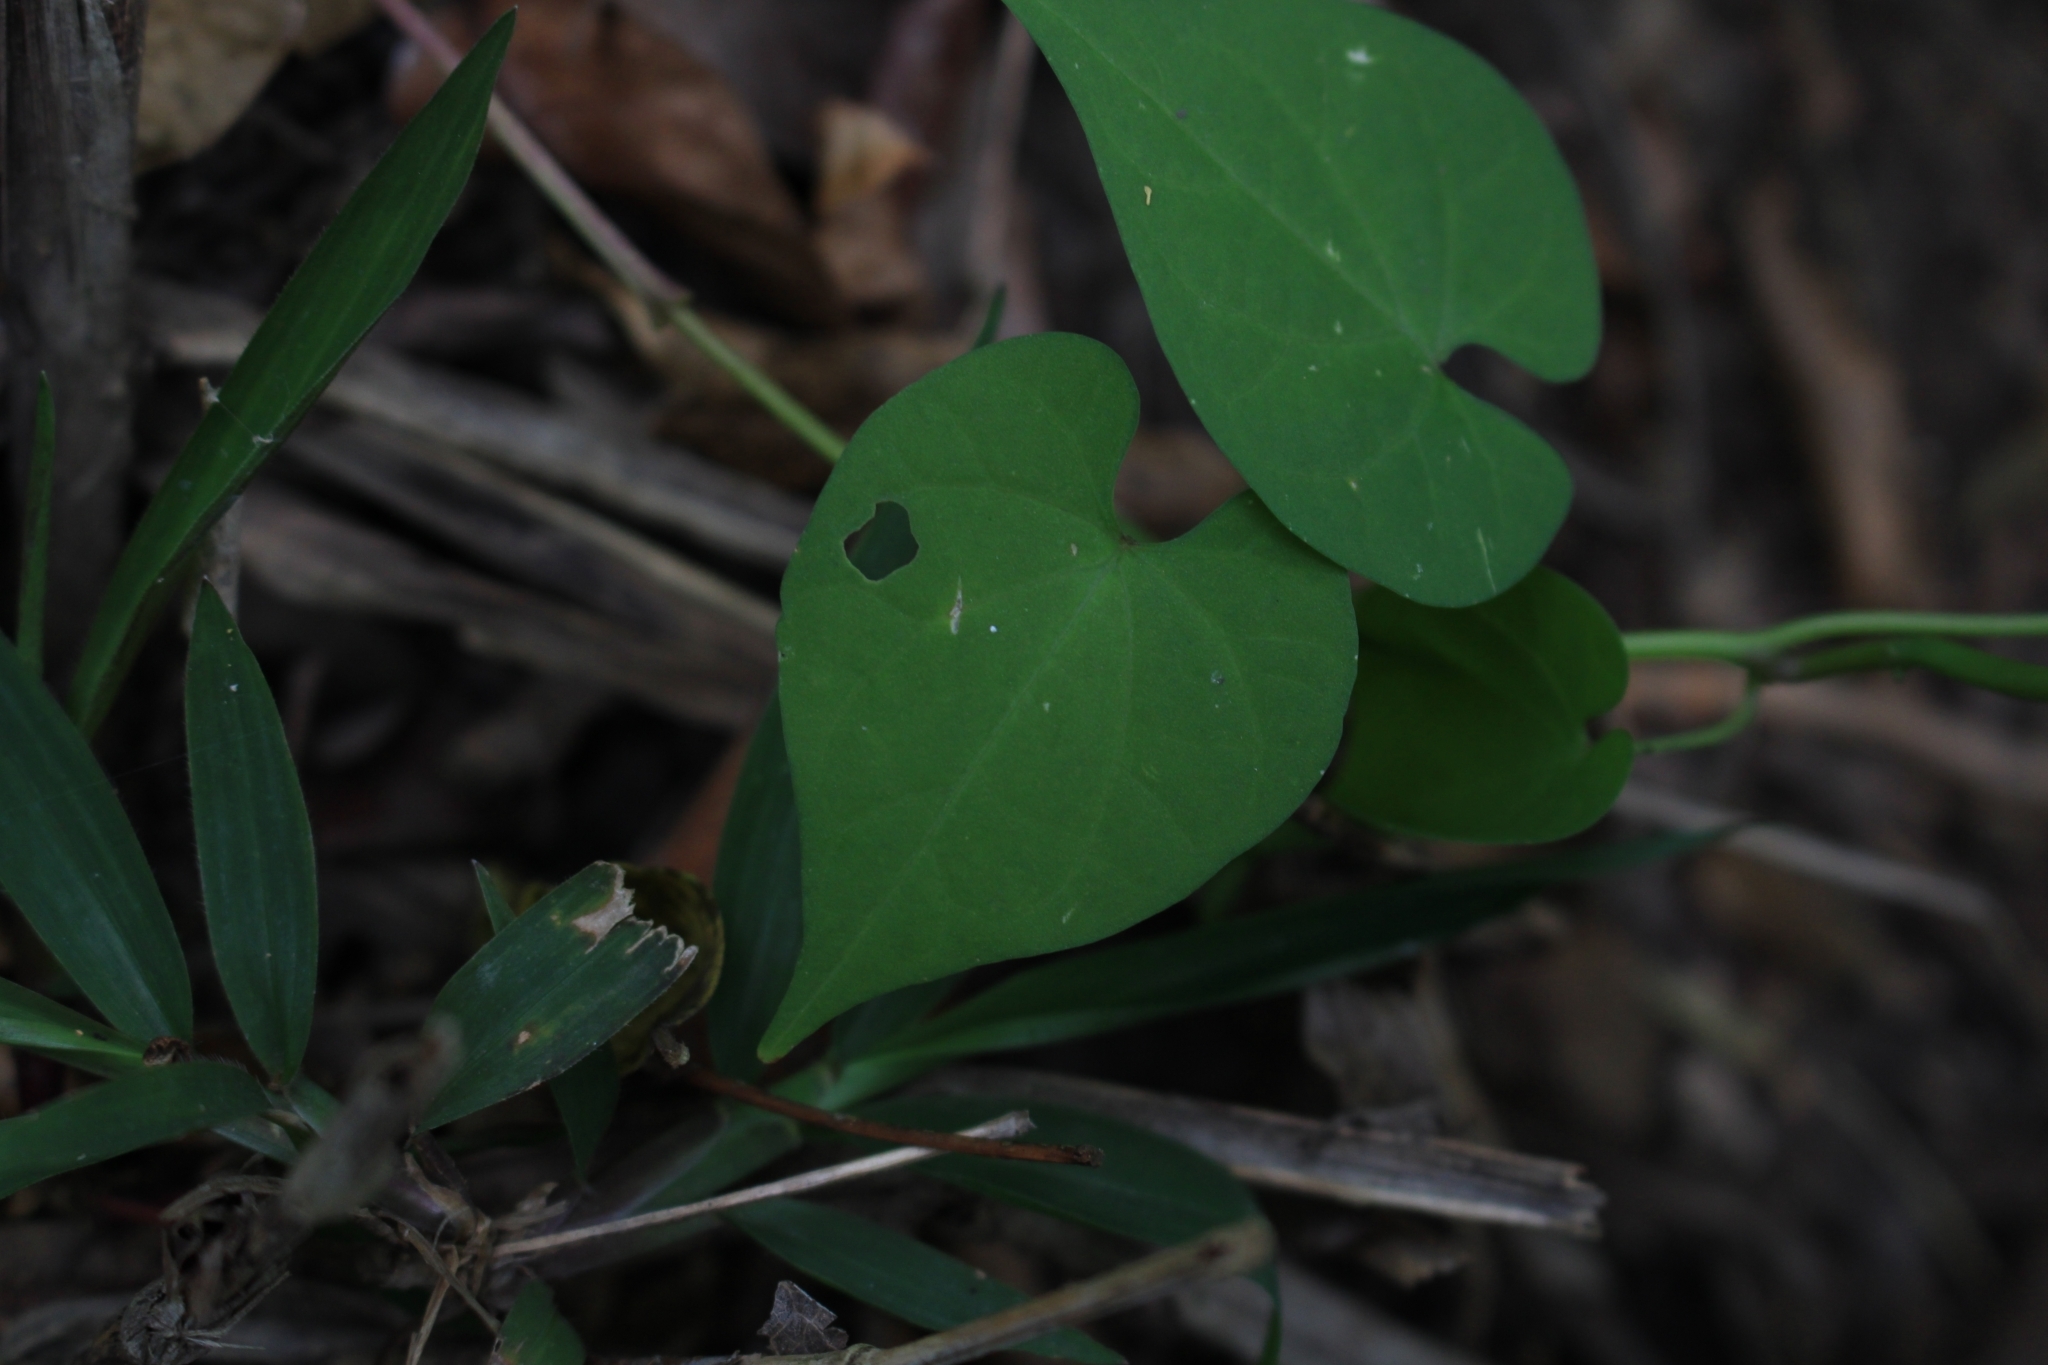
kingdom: Plantae
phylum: Tracheophyta
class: Magnoliopsida
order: Solanales
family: Convolvulaceae
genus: Ipomoea
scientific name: Ipomoea tricolor
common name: Morning-glory
